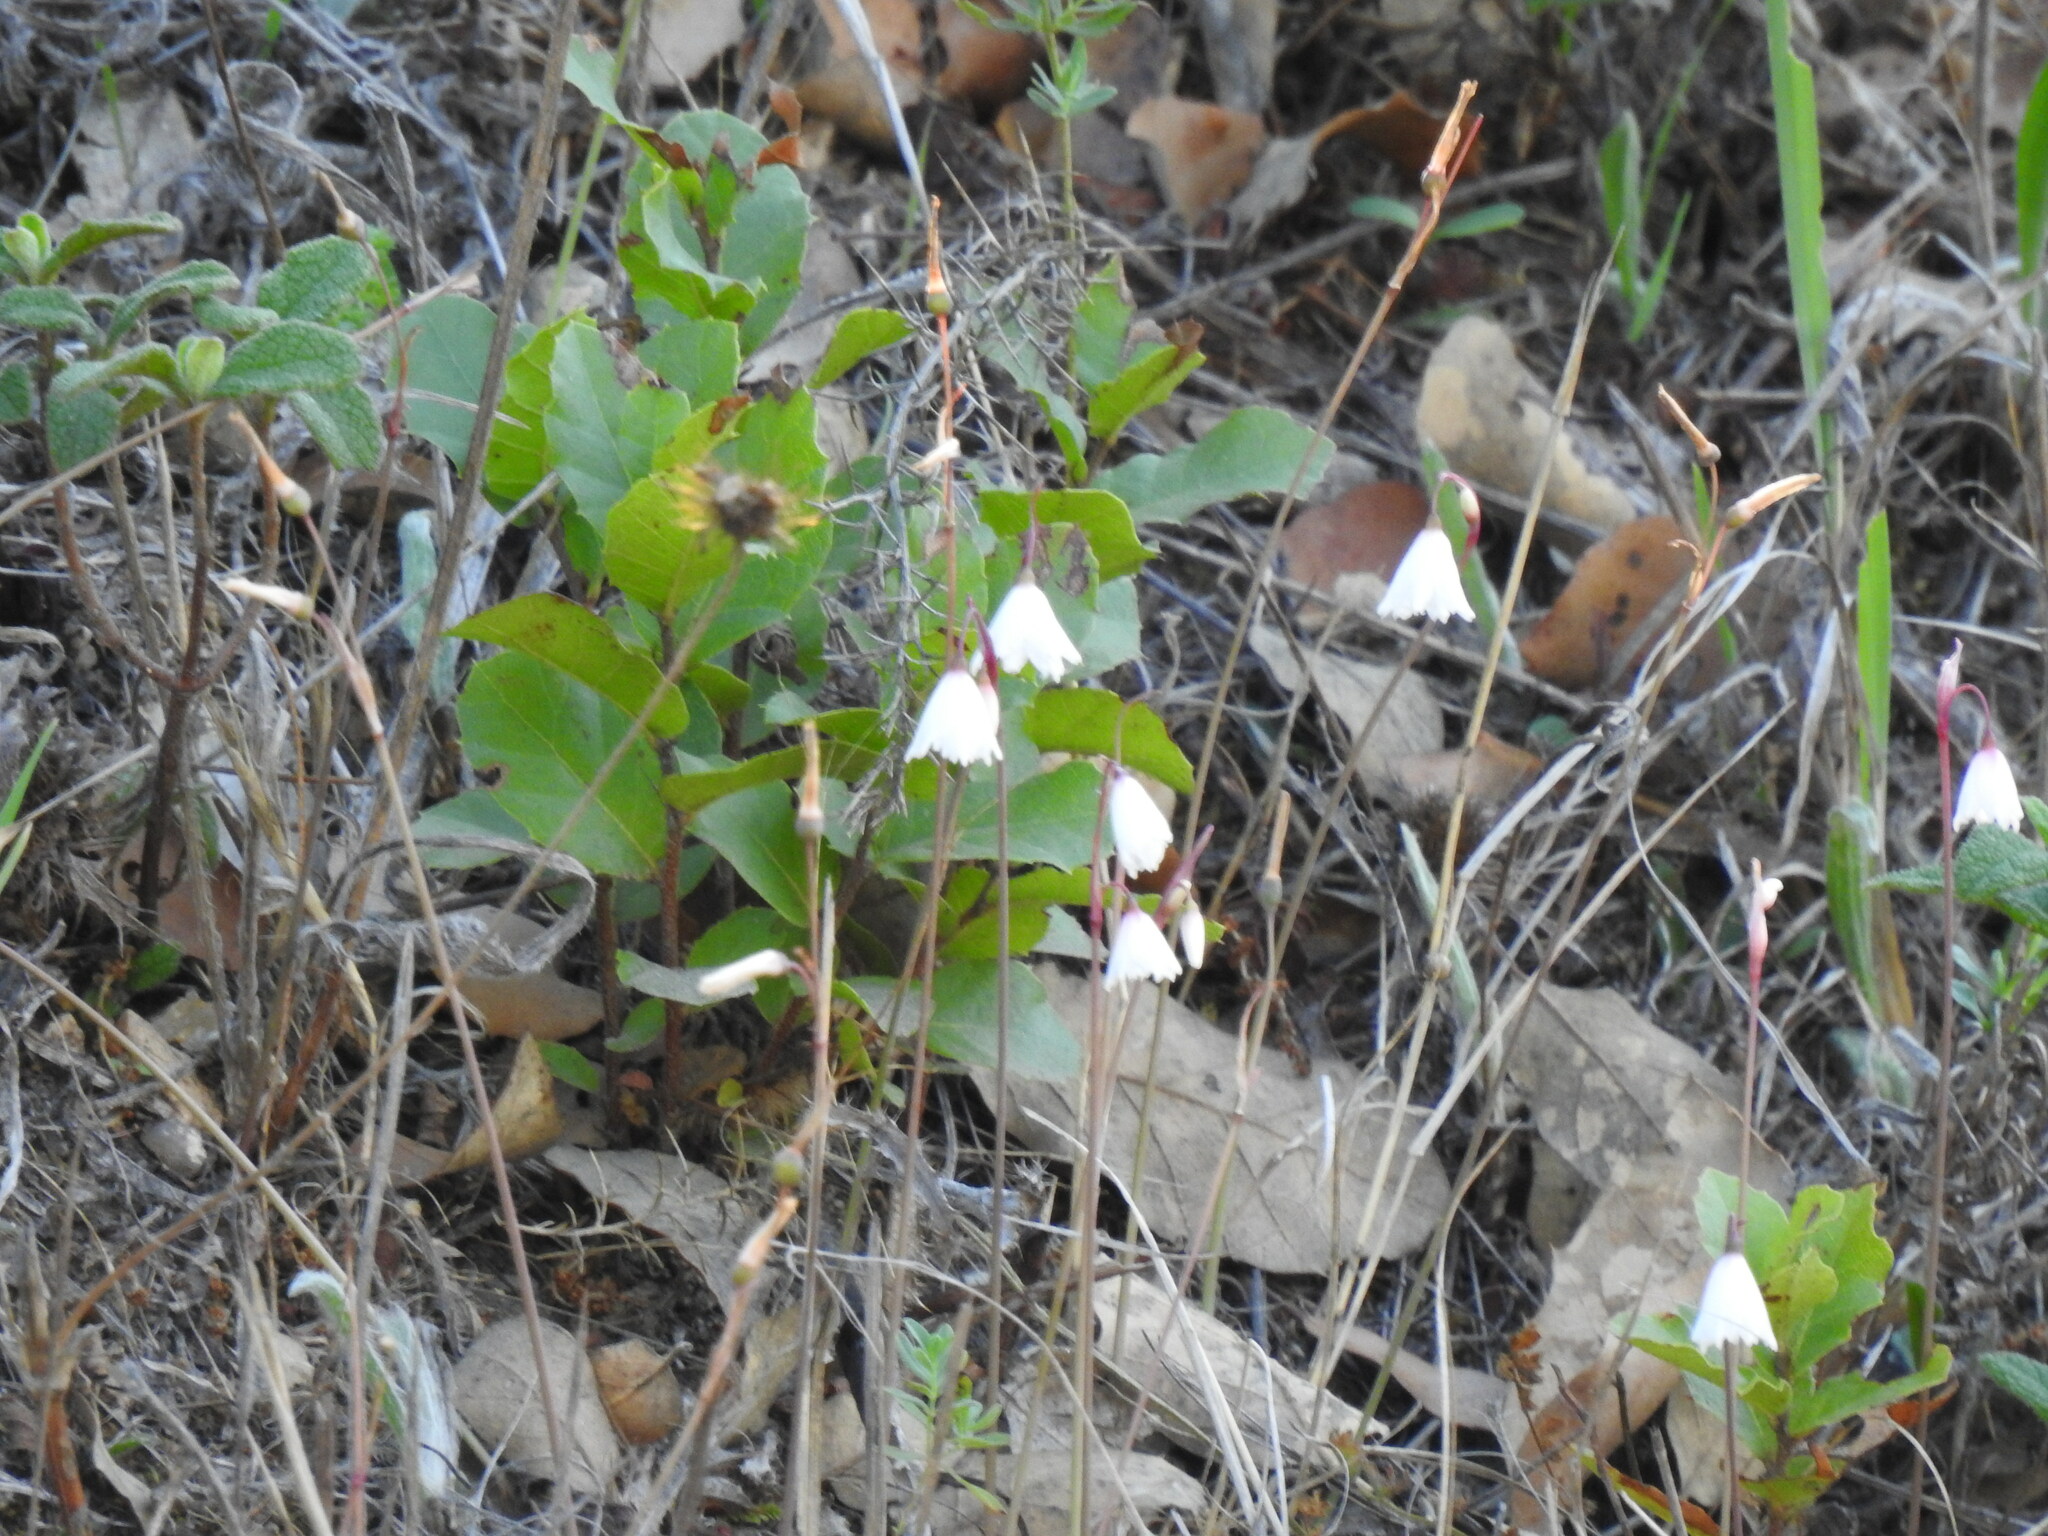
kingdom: Plantae
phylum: Tracheophyta
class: Liliopsida
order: Asparagales
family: Amaryllidaceae
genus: Acis
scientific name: Acis autumnalis
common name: Autumn snowflake
